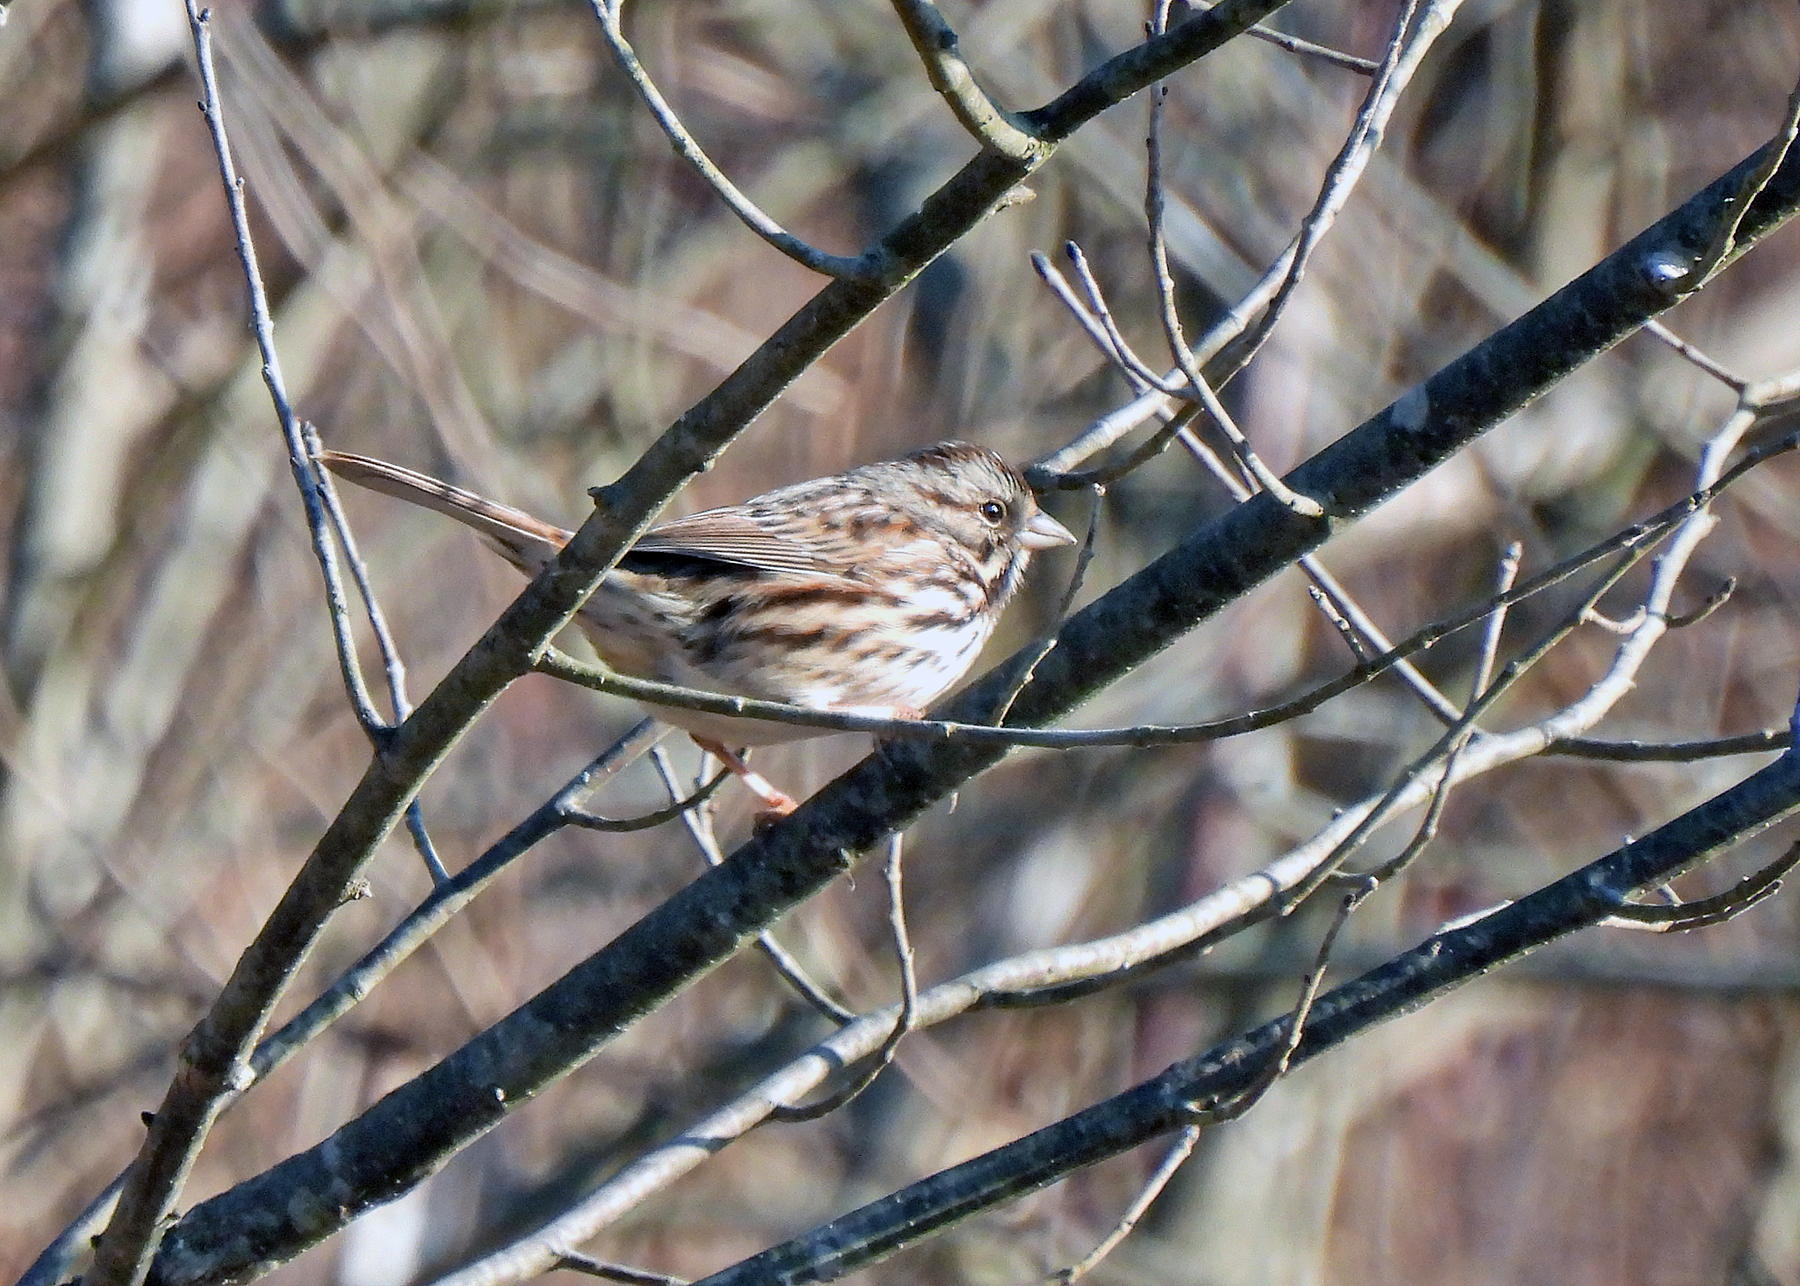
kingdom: Animalia
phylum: Chordata
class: Aves
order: Passeriformes
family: Passerellidae
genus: Melospiza
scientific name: Melospiza melodia
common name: Song sparrow
